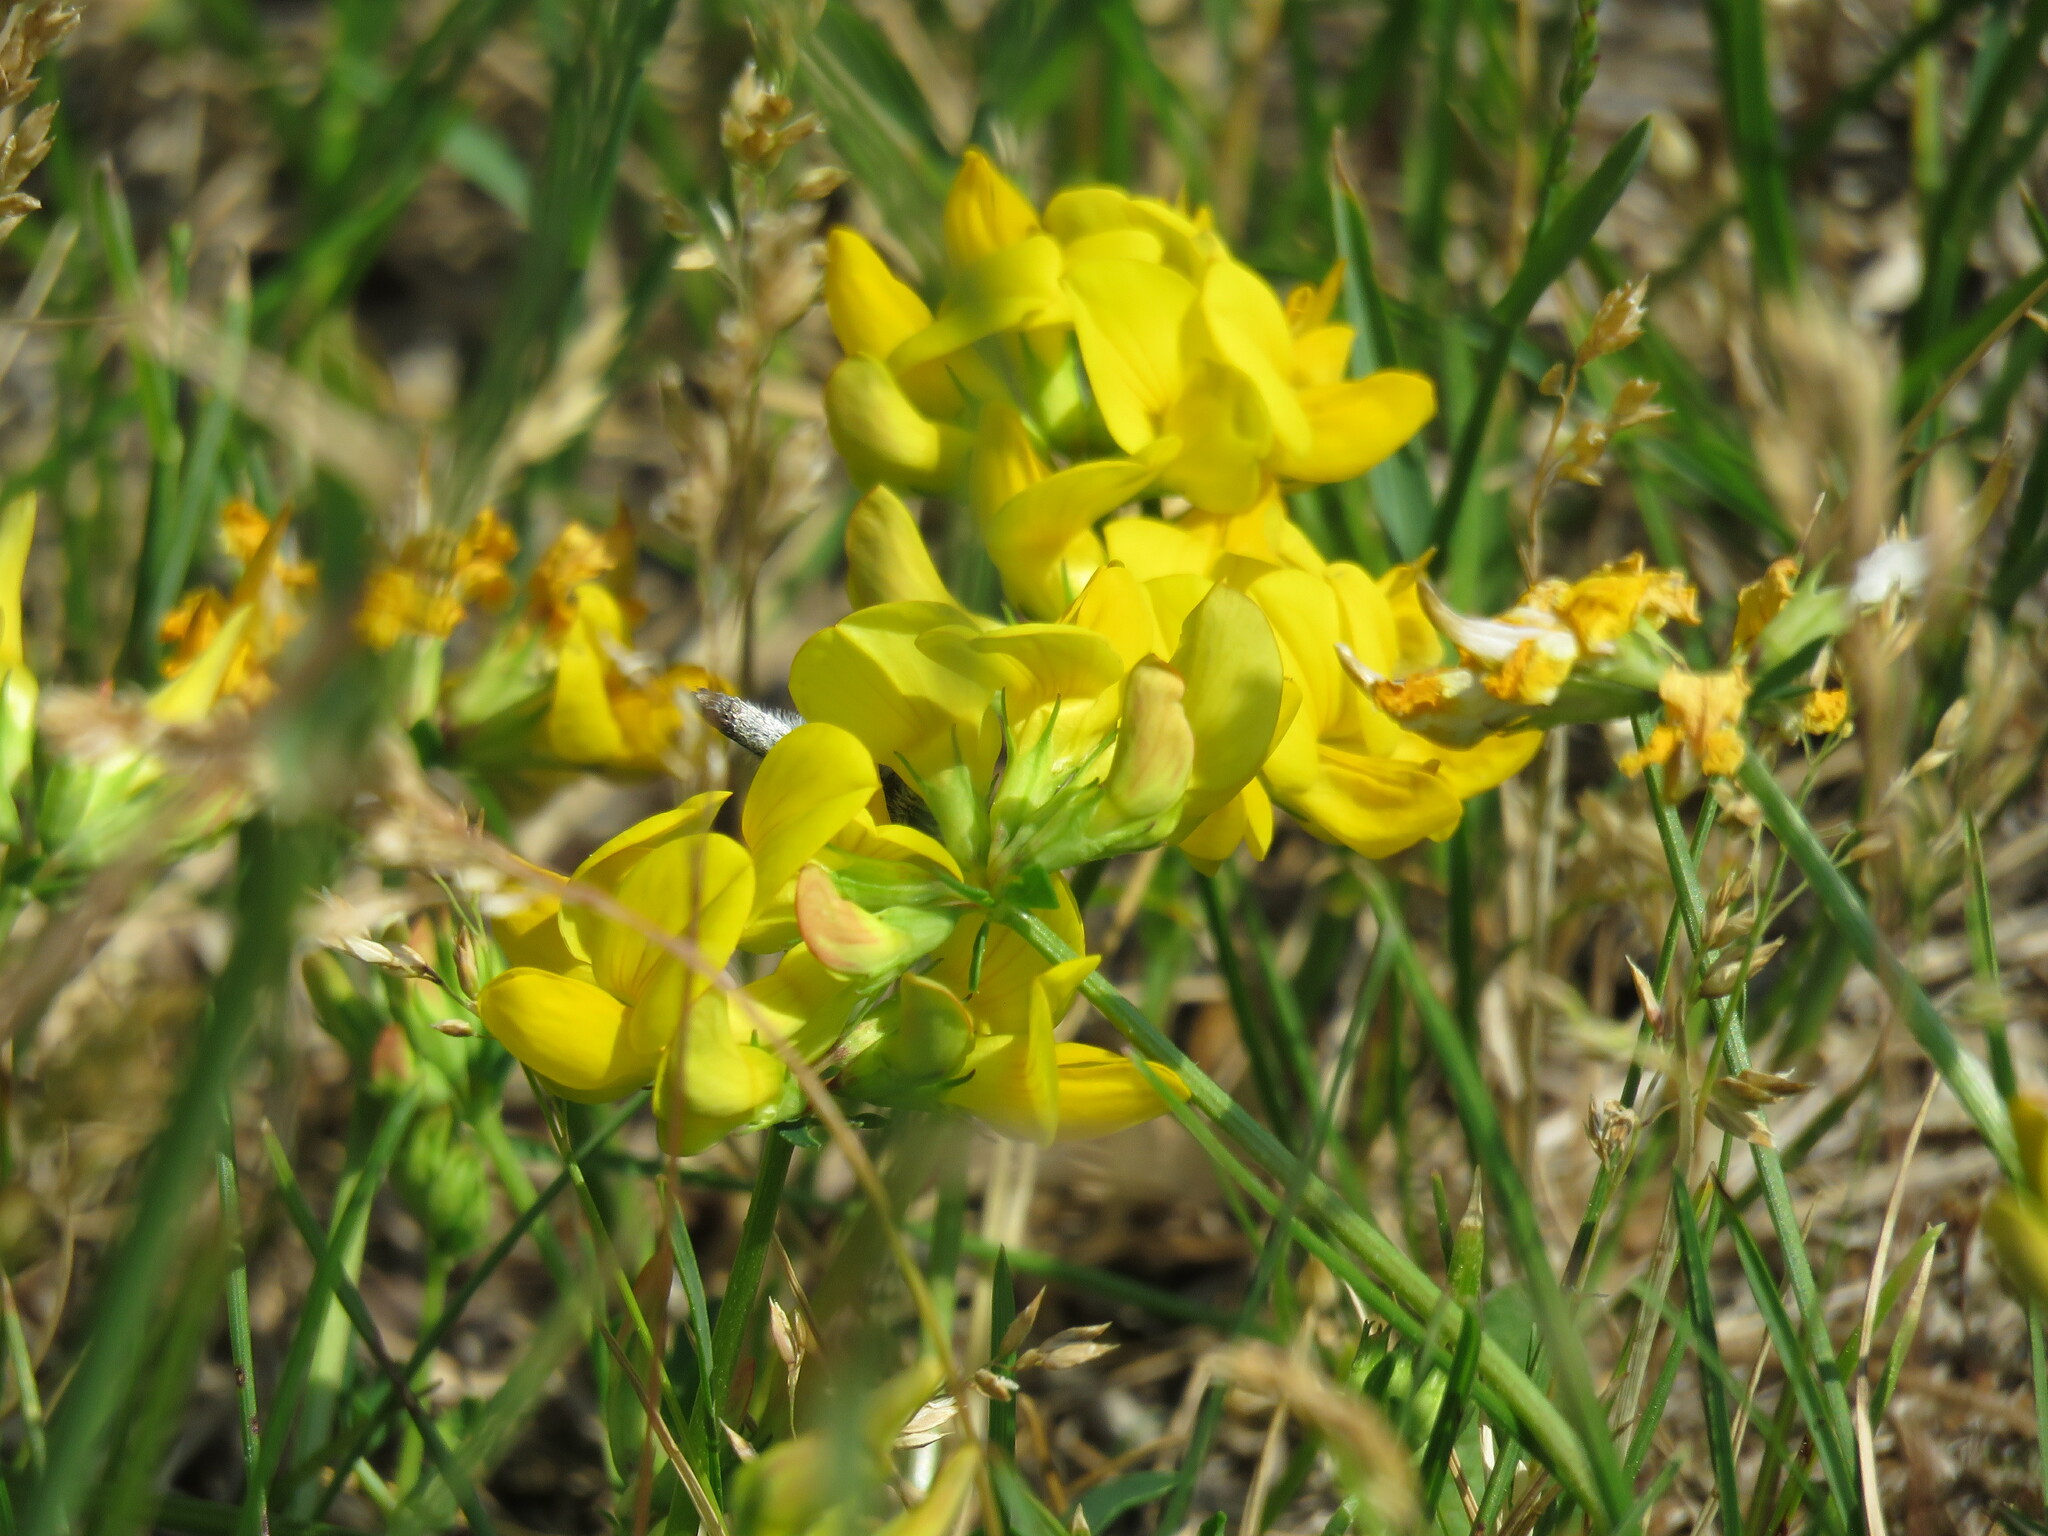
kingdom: Plantae
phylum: Tracheophyta
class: Magnoliopsida
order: Fabales
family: Fabaceae
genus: Lotus
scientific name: Lotus corniculatus
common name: Common bird's-foot-trefoil
